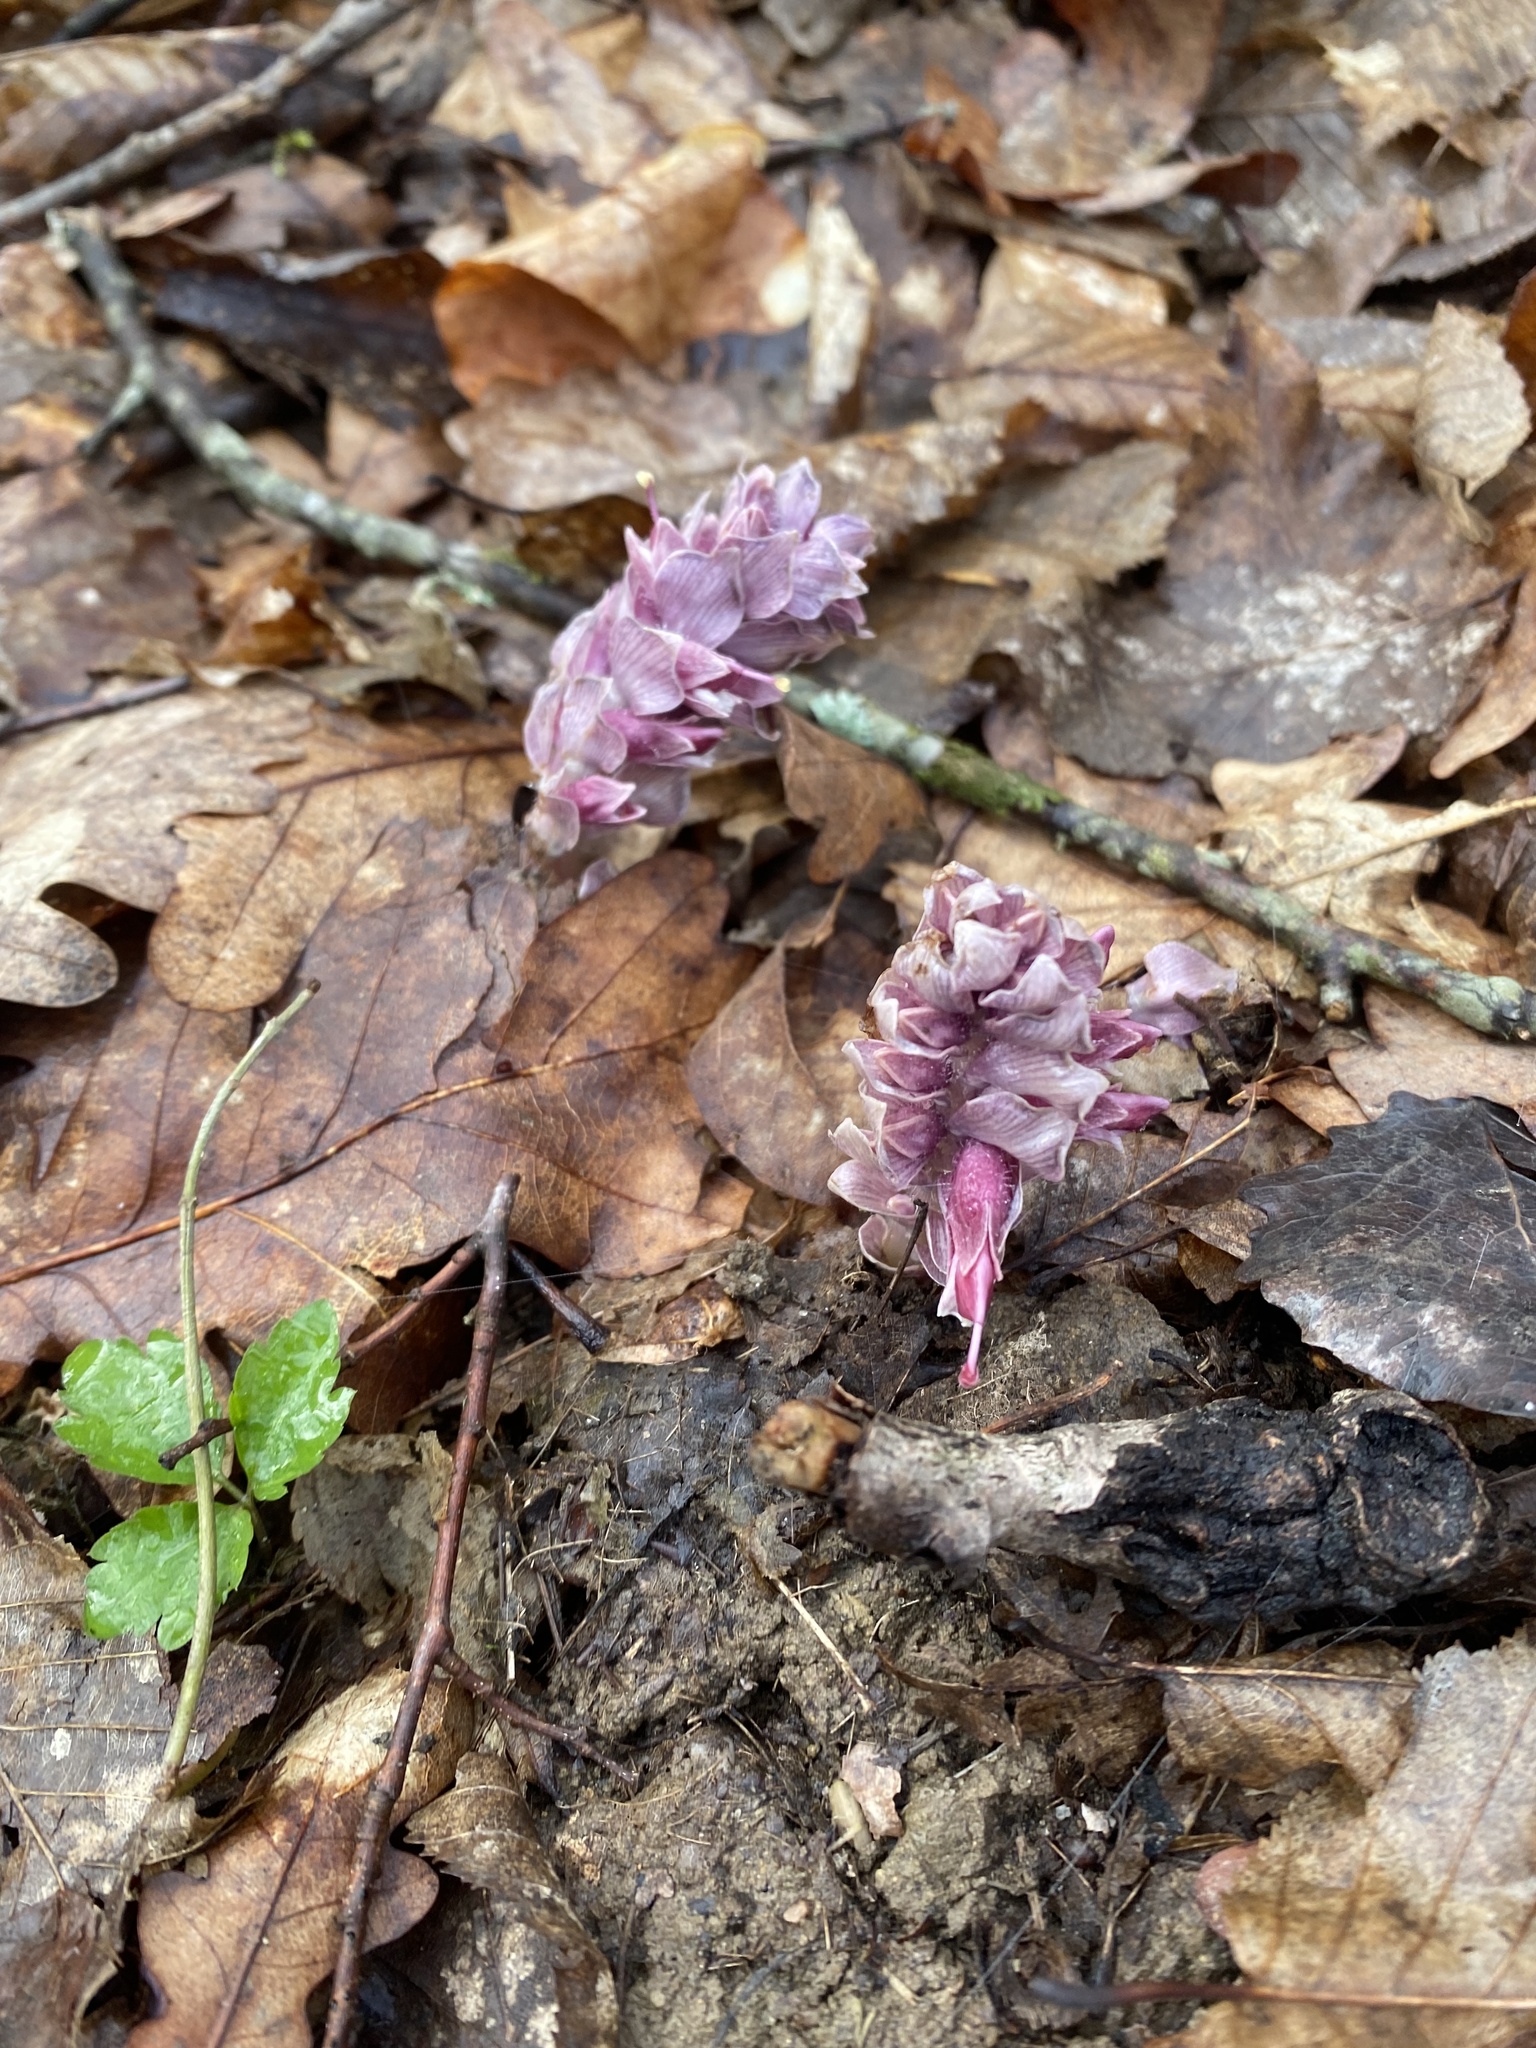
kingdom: Plantae
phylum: Tracheophyta
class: Magnoliopsida
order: Lamiales
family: Orobanchaceae
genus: Lathraea
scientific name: Lathraea squamaria
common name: Toothwort
